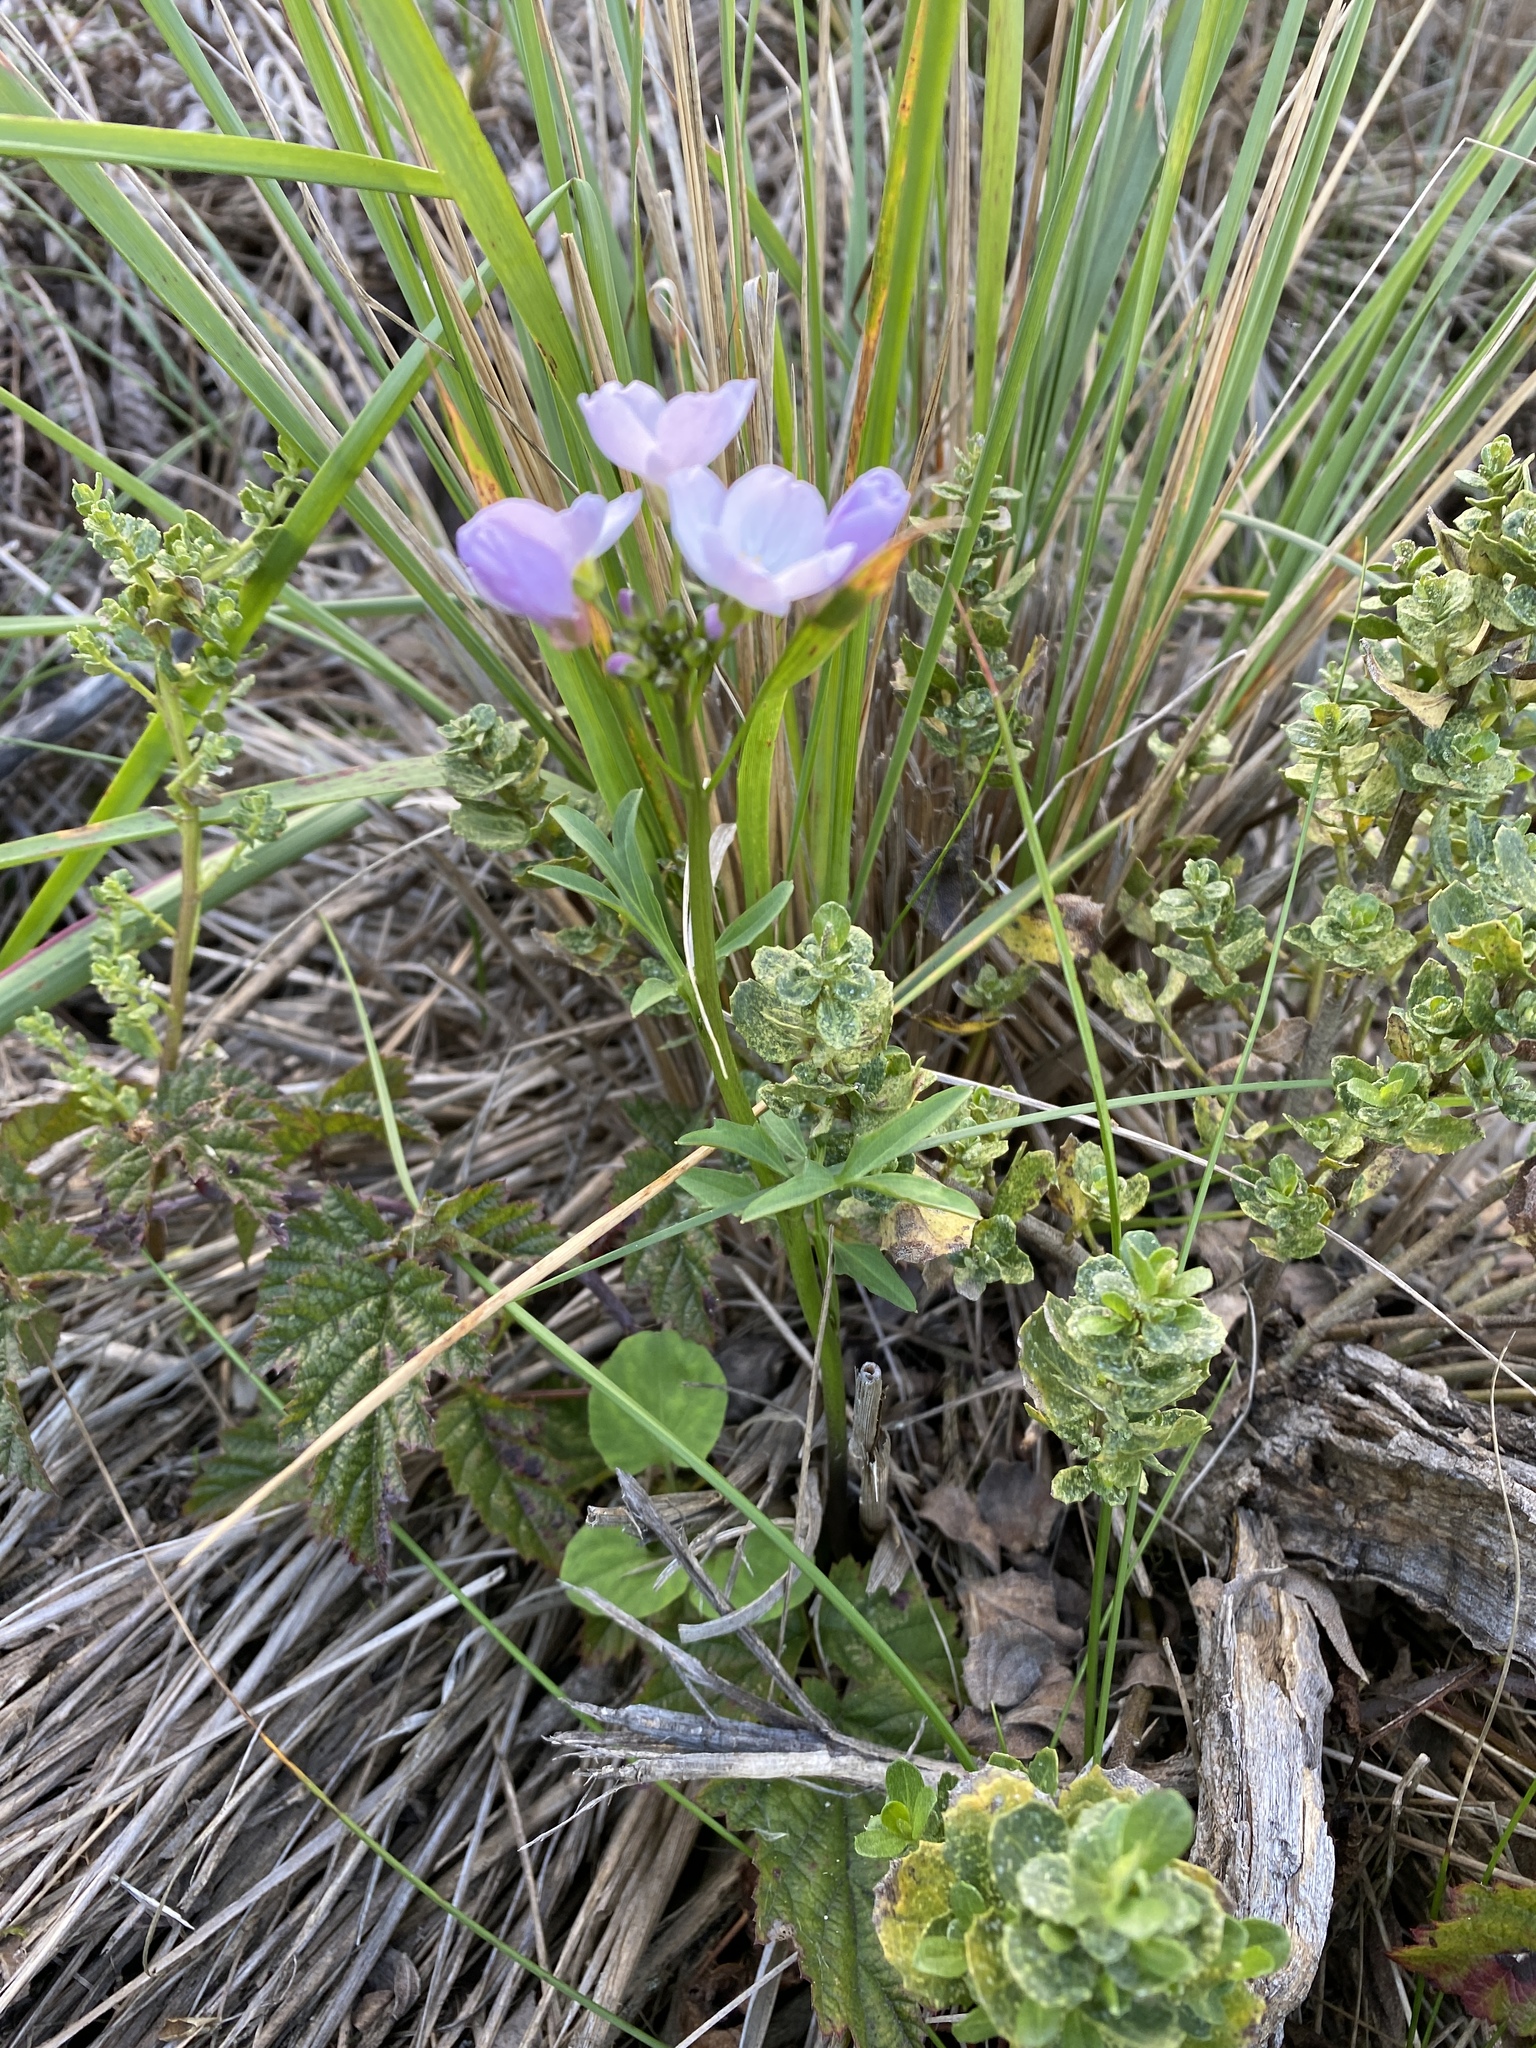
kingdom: Plantae
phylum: Tracheophyta
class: Magnoliopsida
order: Brassicales
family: Brassicaceae
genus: Cardamine
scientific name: Cardamine californica
